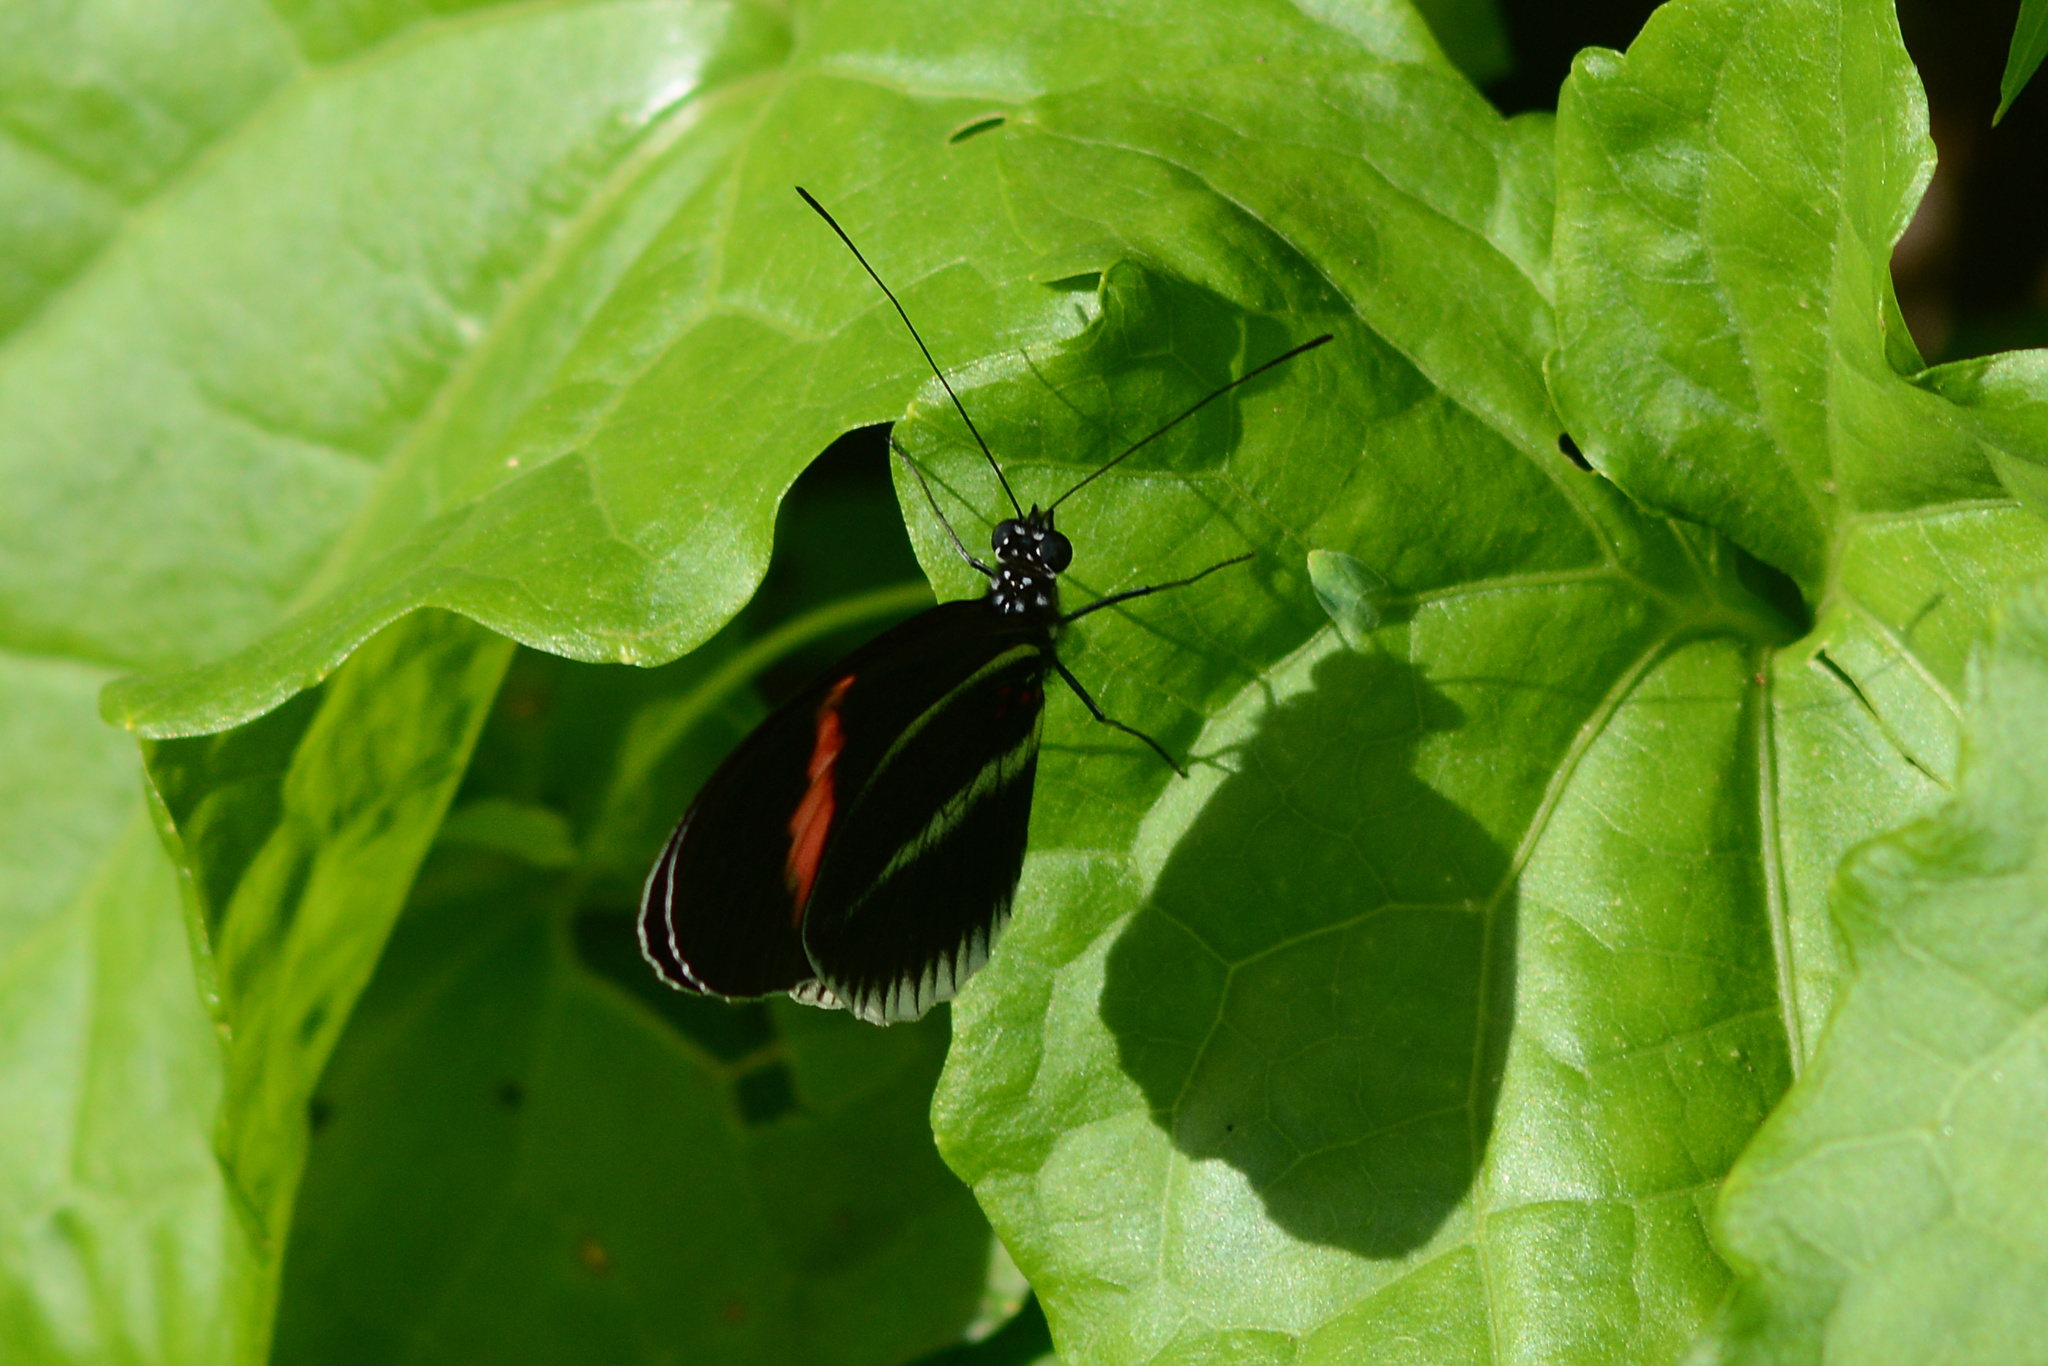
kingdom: Animalia
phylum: Arthropoda
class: Insecta
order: Lepidoptera
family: Nymphalidae
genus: Heliconius
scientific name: Heliconius erato
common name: Common patch longwing
